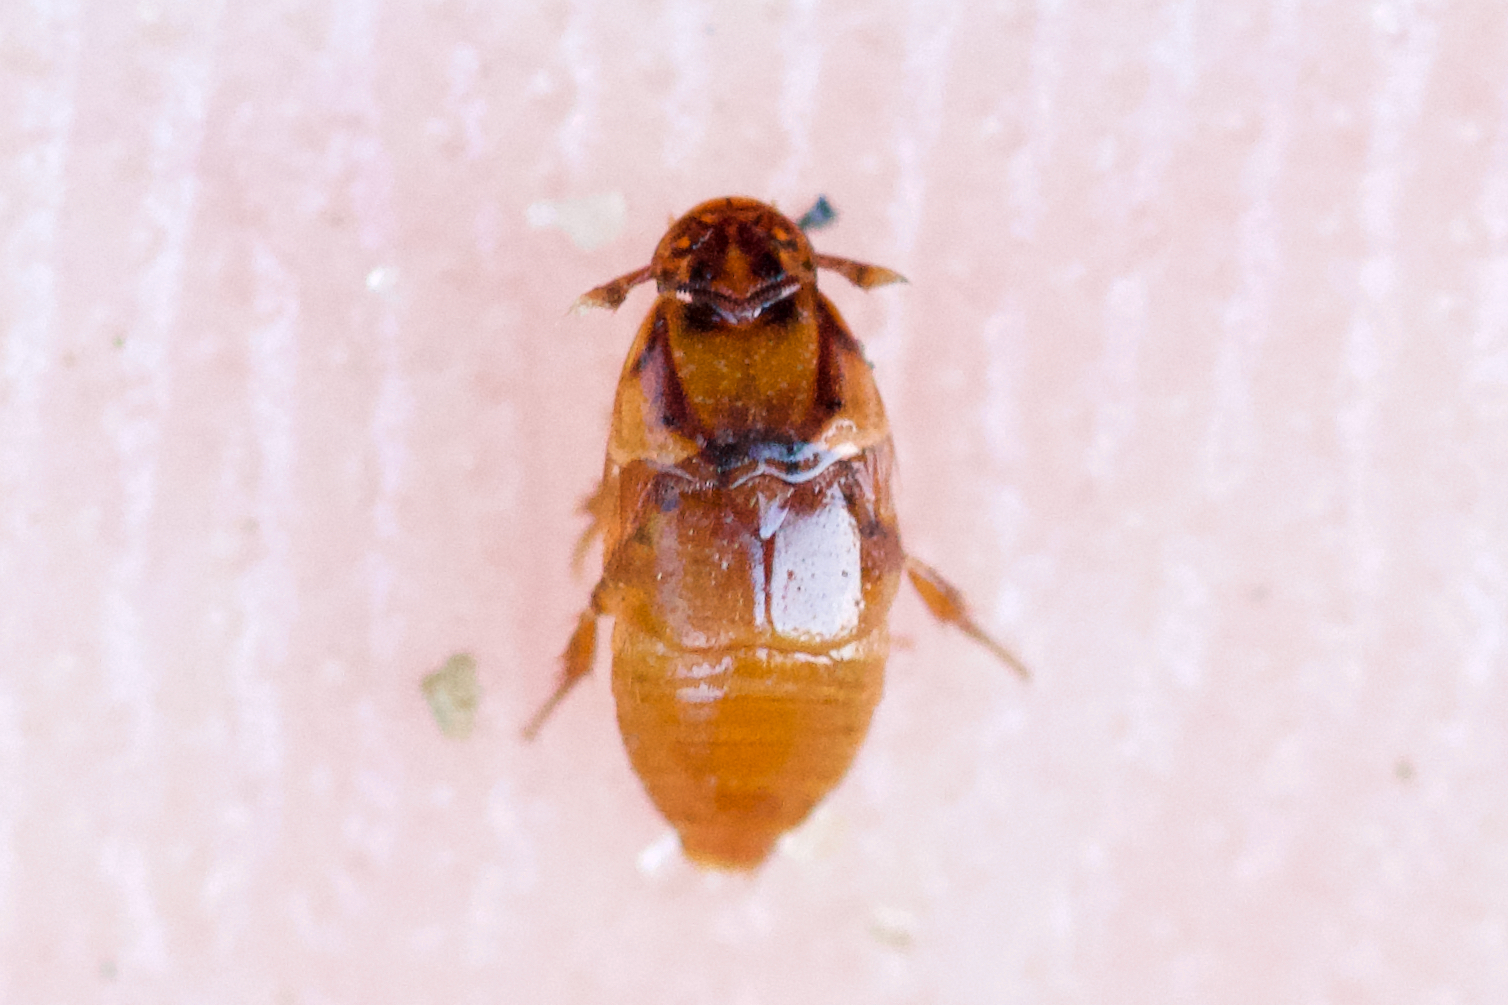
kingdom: Animalia
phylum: Arthropoda
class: Insecta
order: Coleoptera
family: Leiodidae
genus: Platypsyllus
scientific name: Platypsyllus castoris
